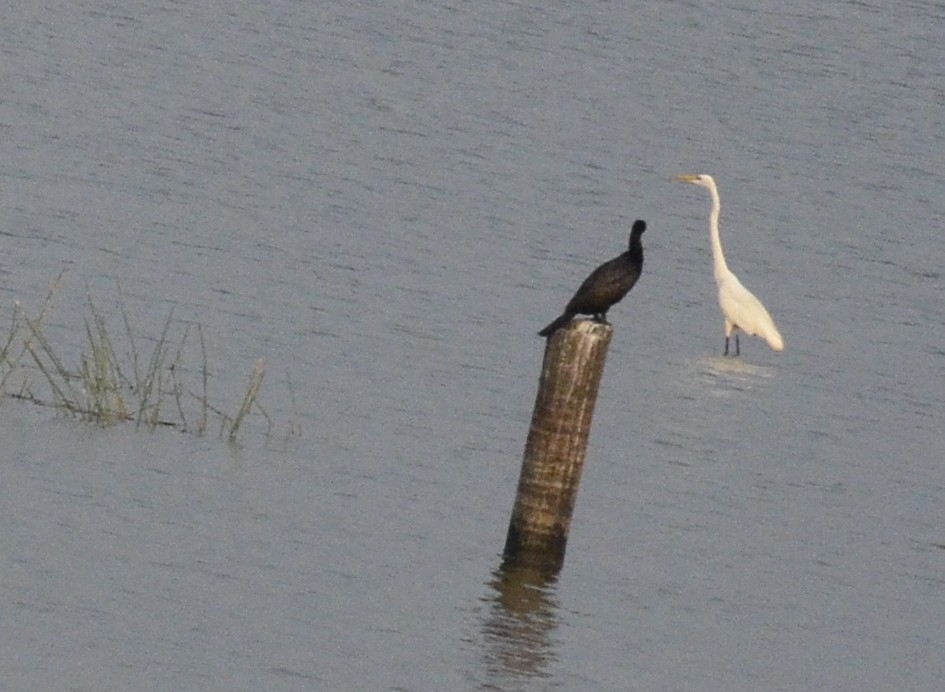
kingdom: Animalia
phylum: Chordata
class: Aves
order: Suliformes
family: Phalacrocoracidae
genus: Microcarbo
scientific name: Microcarbo niger
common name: Little cormorant
